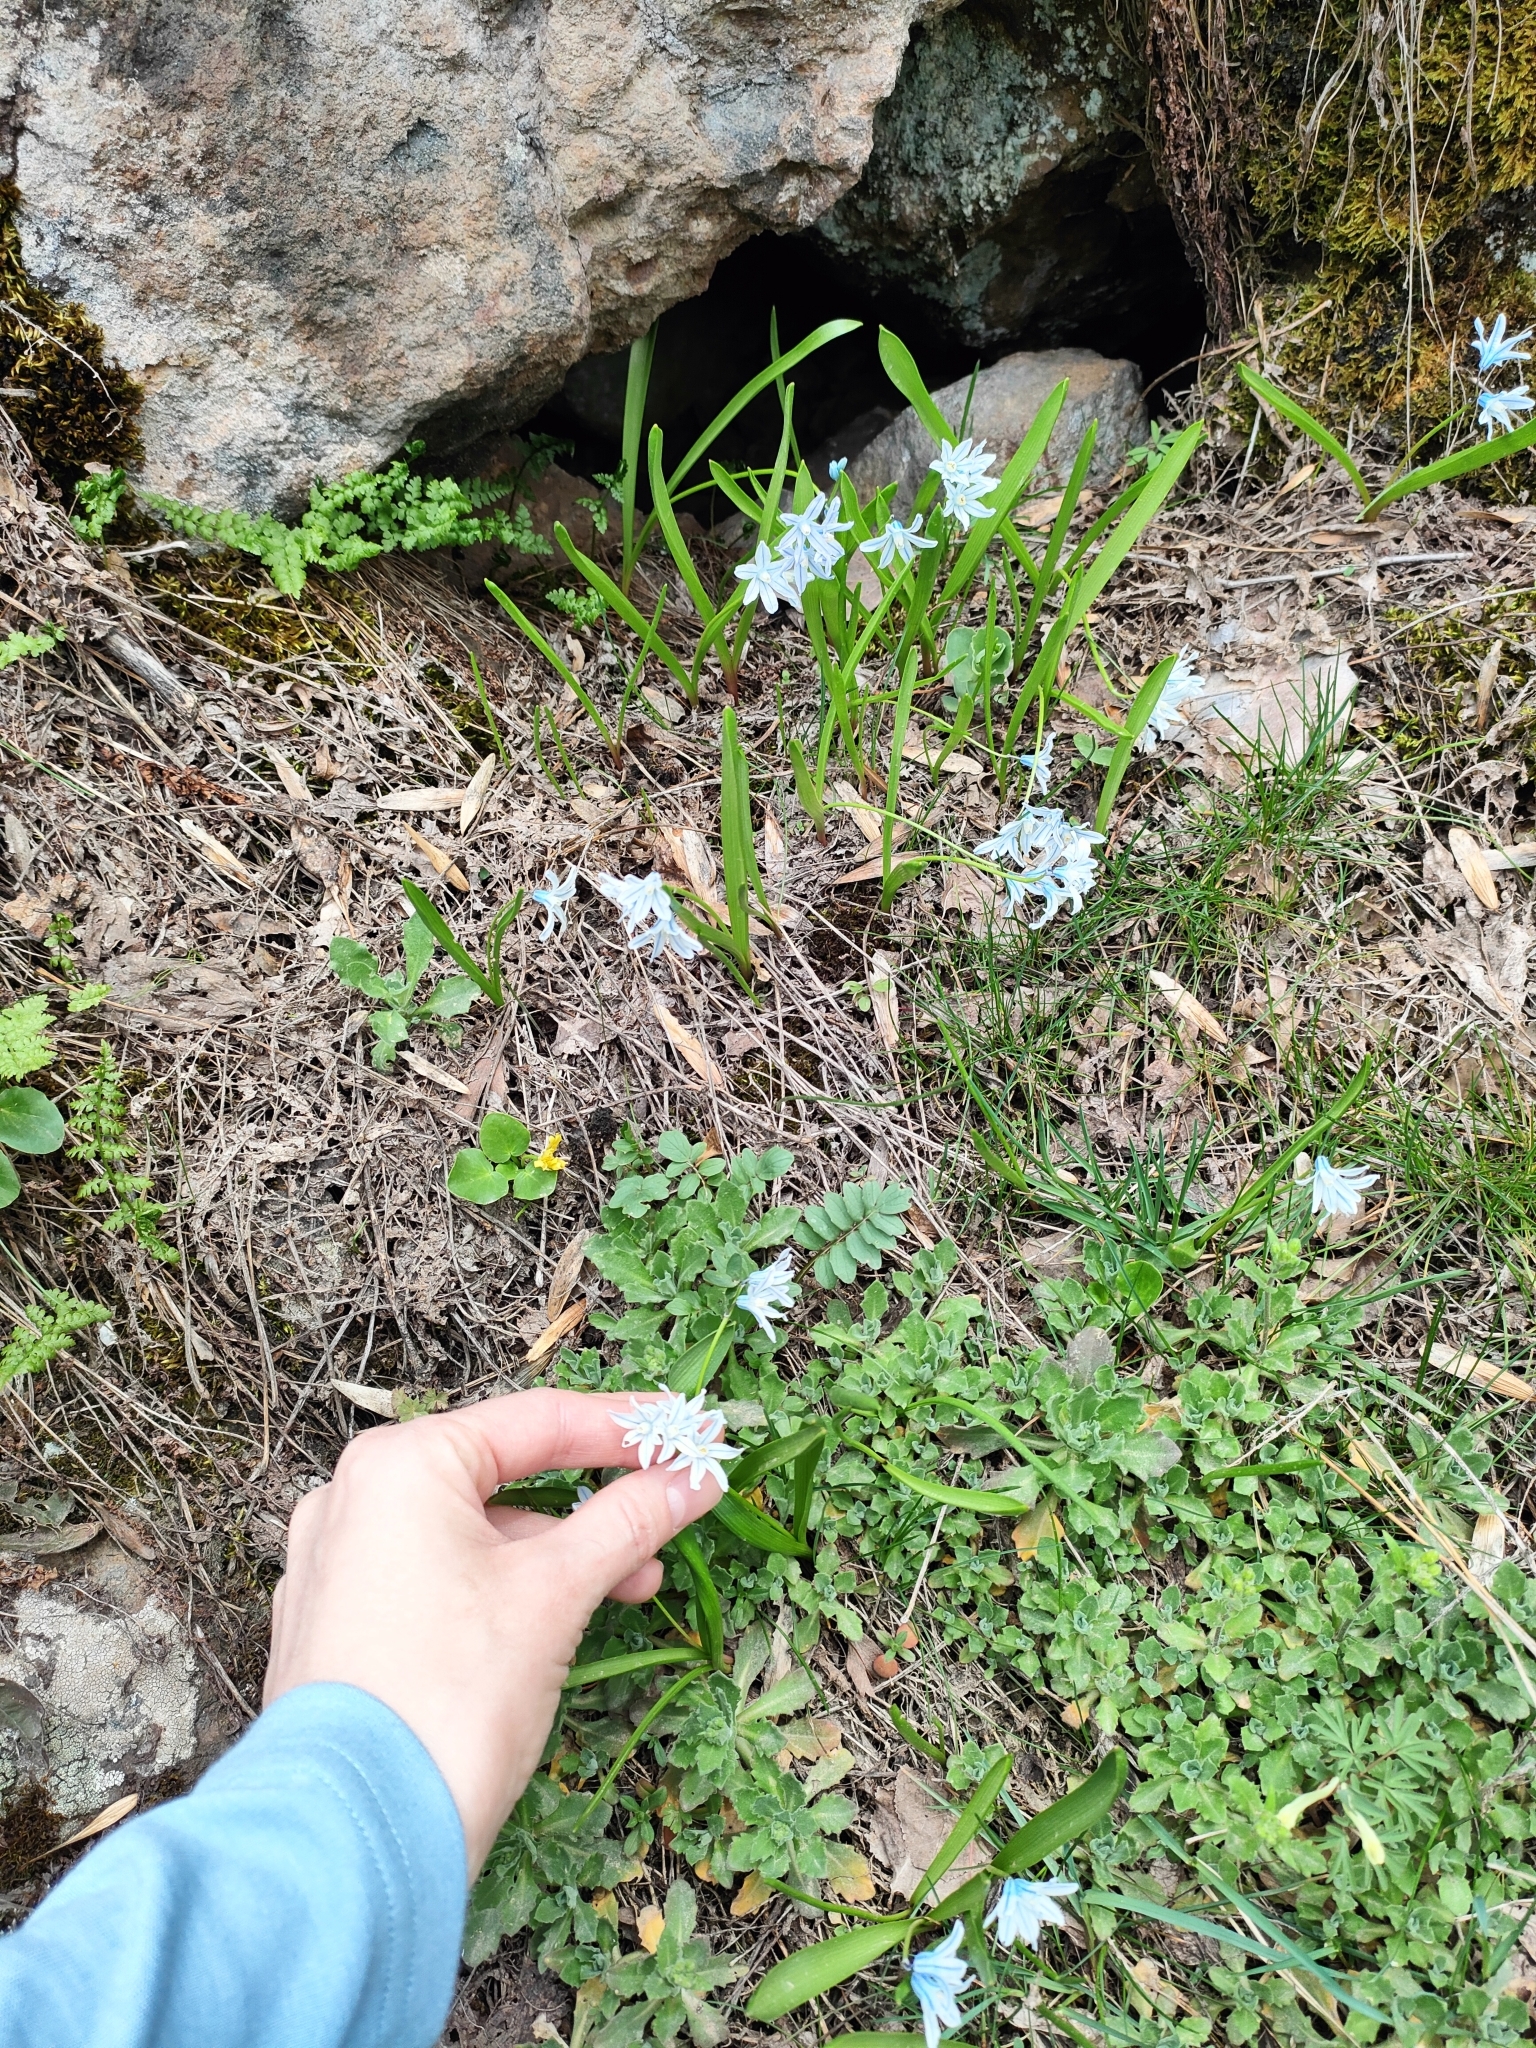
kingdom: Plantae
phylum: Tracheophyta
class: Liliopsida
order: Asparagales
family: Asparagaceae
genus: Puschkinia
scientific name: Puschkinia scilloides
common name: Striped squill
